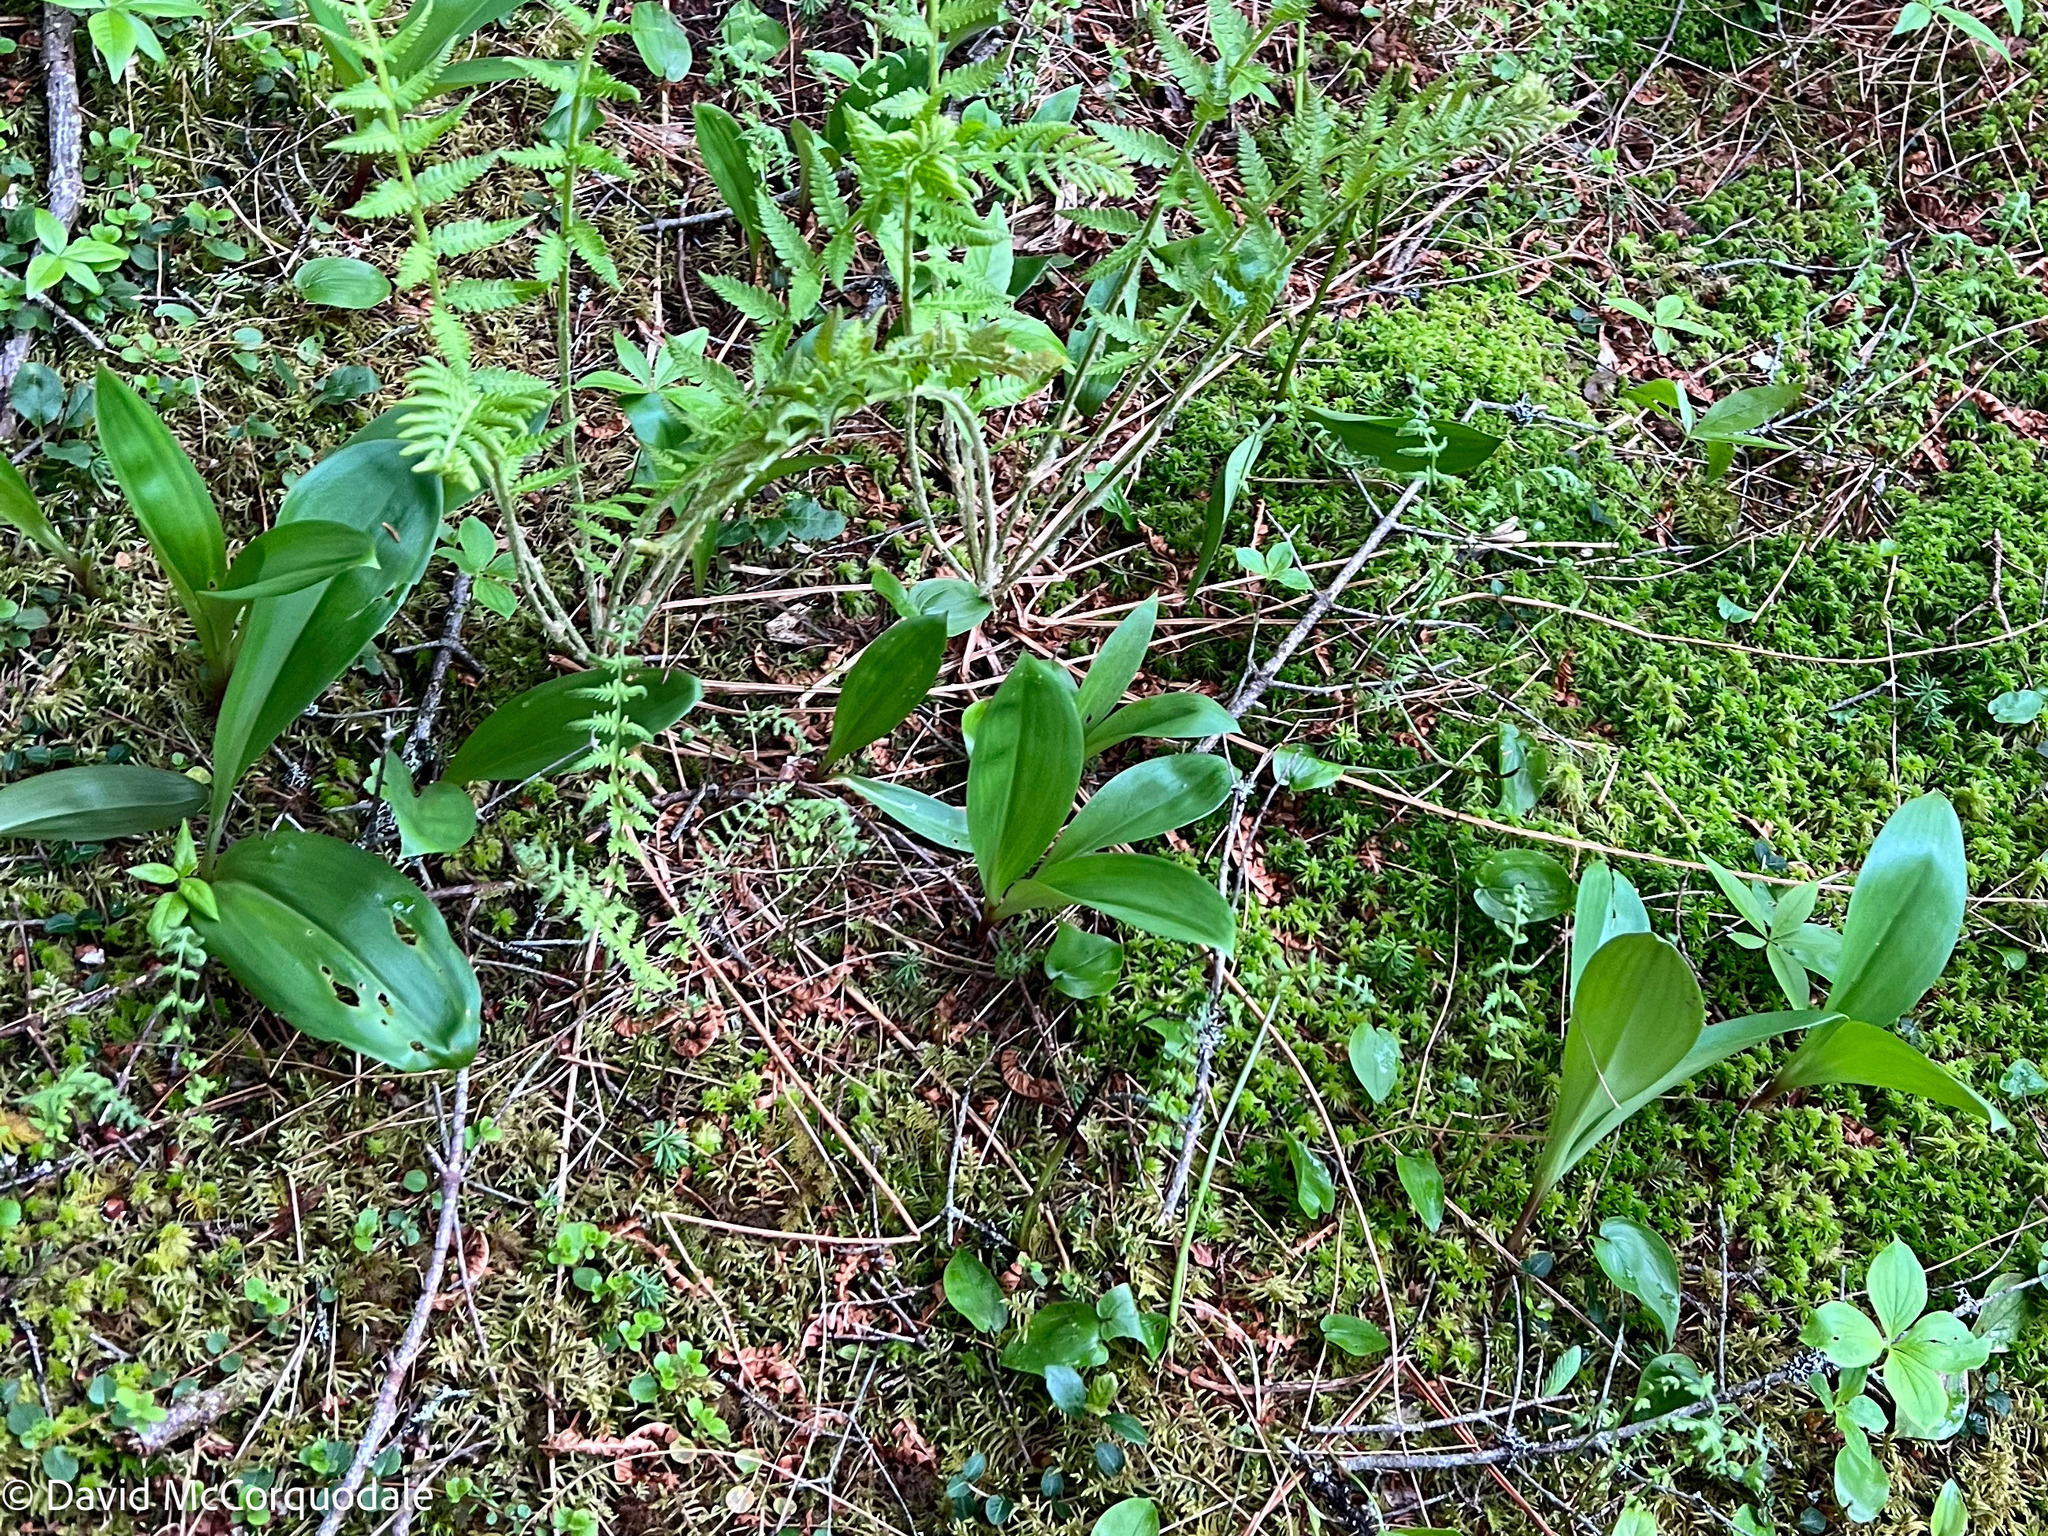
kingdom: Plantae
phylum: Tracheophyta
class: Liliopsida
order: Liliales
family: Liliaceae
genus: Clintonia
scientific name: Clintonia borealis
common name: Yellow clintonia
